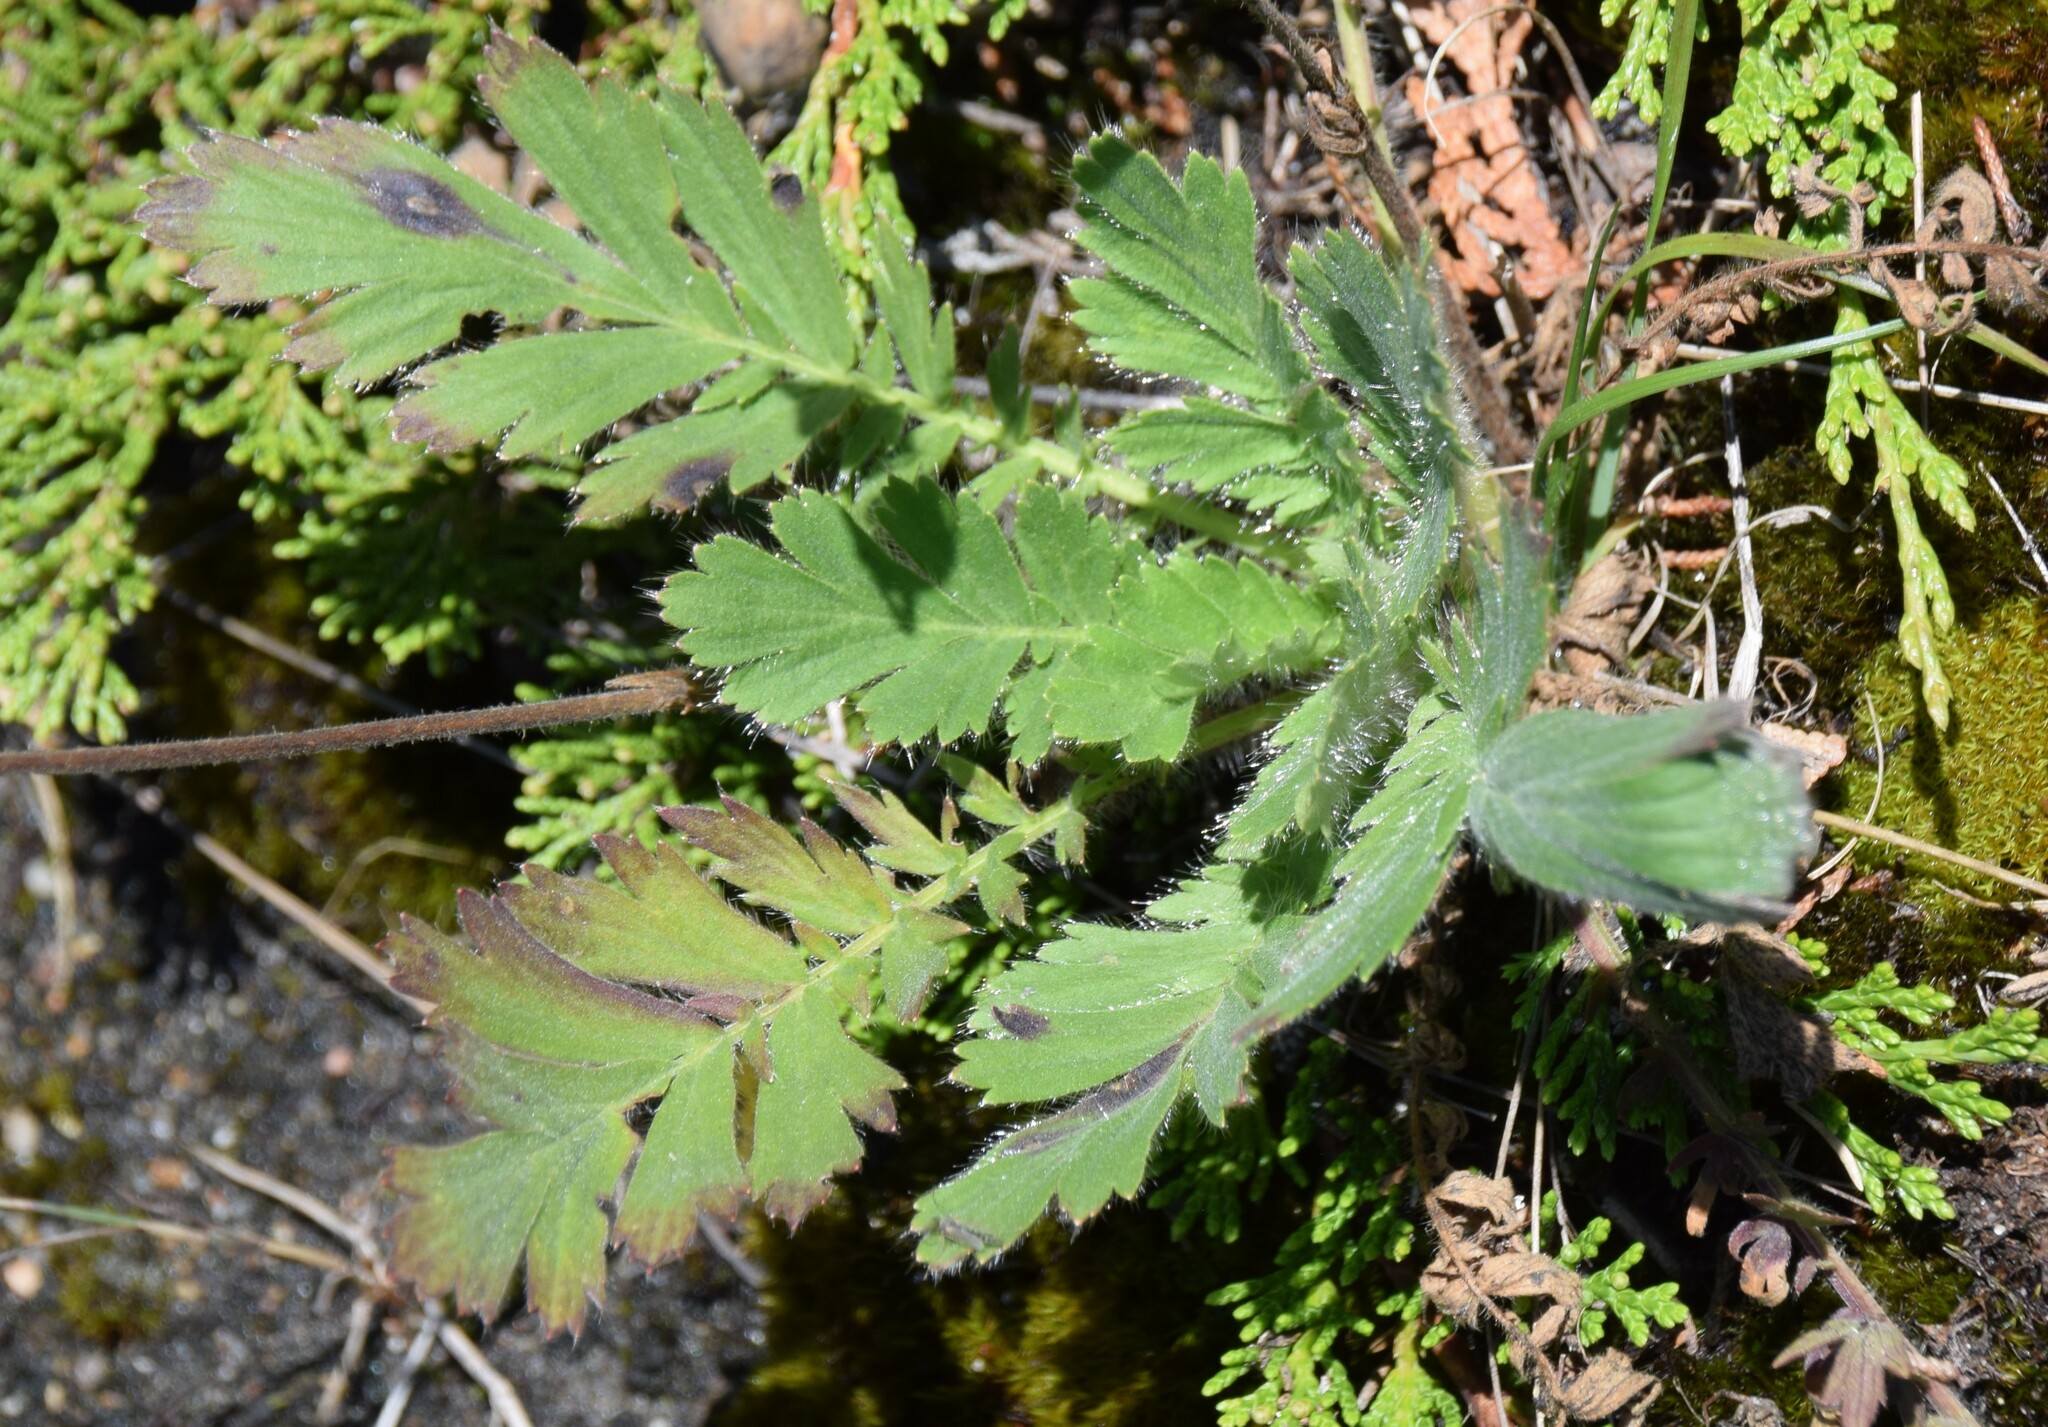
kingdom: Plantae
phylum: Tracheophyta
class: Magnoliopsida
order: Rosales
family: Rosaceae
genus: Geum
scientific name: Geum triflorum
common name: Old man's whiskers
